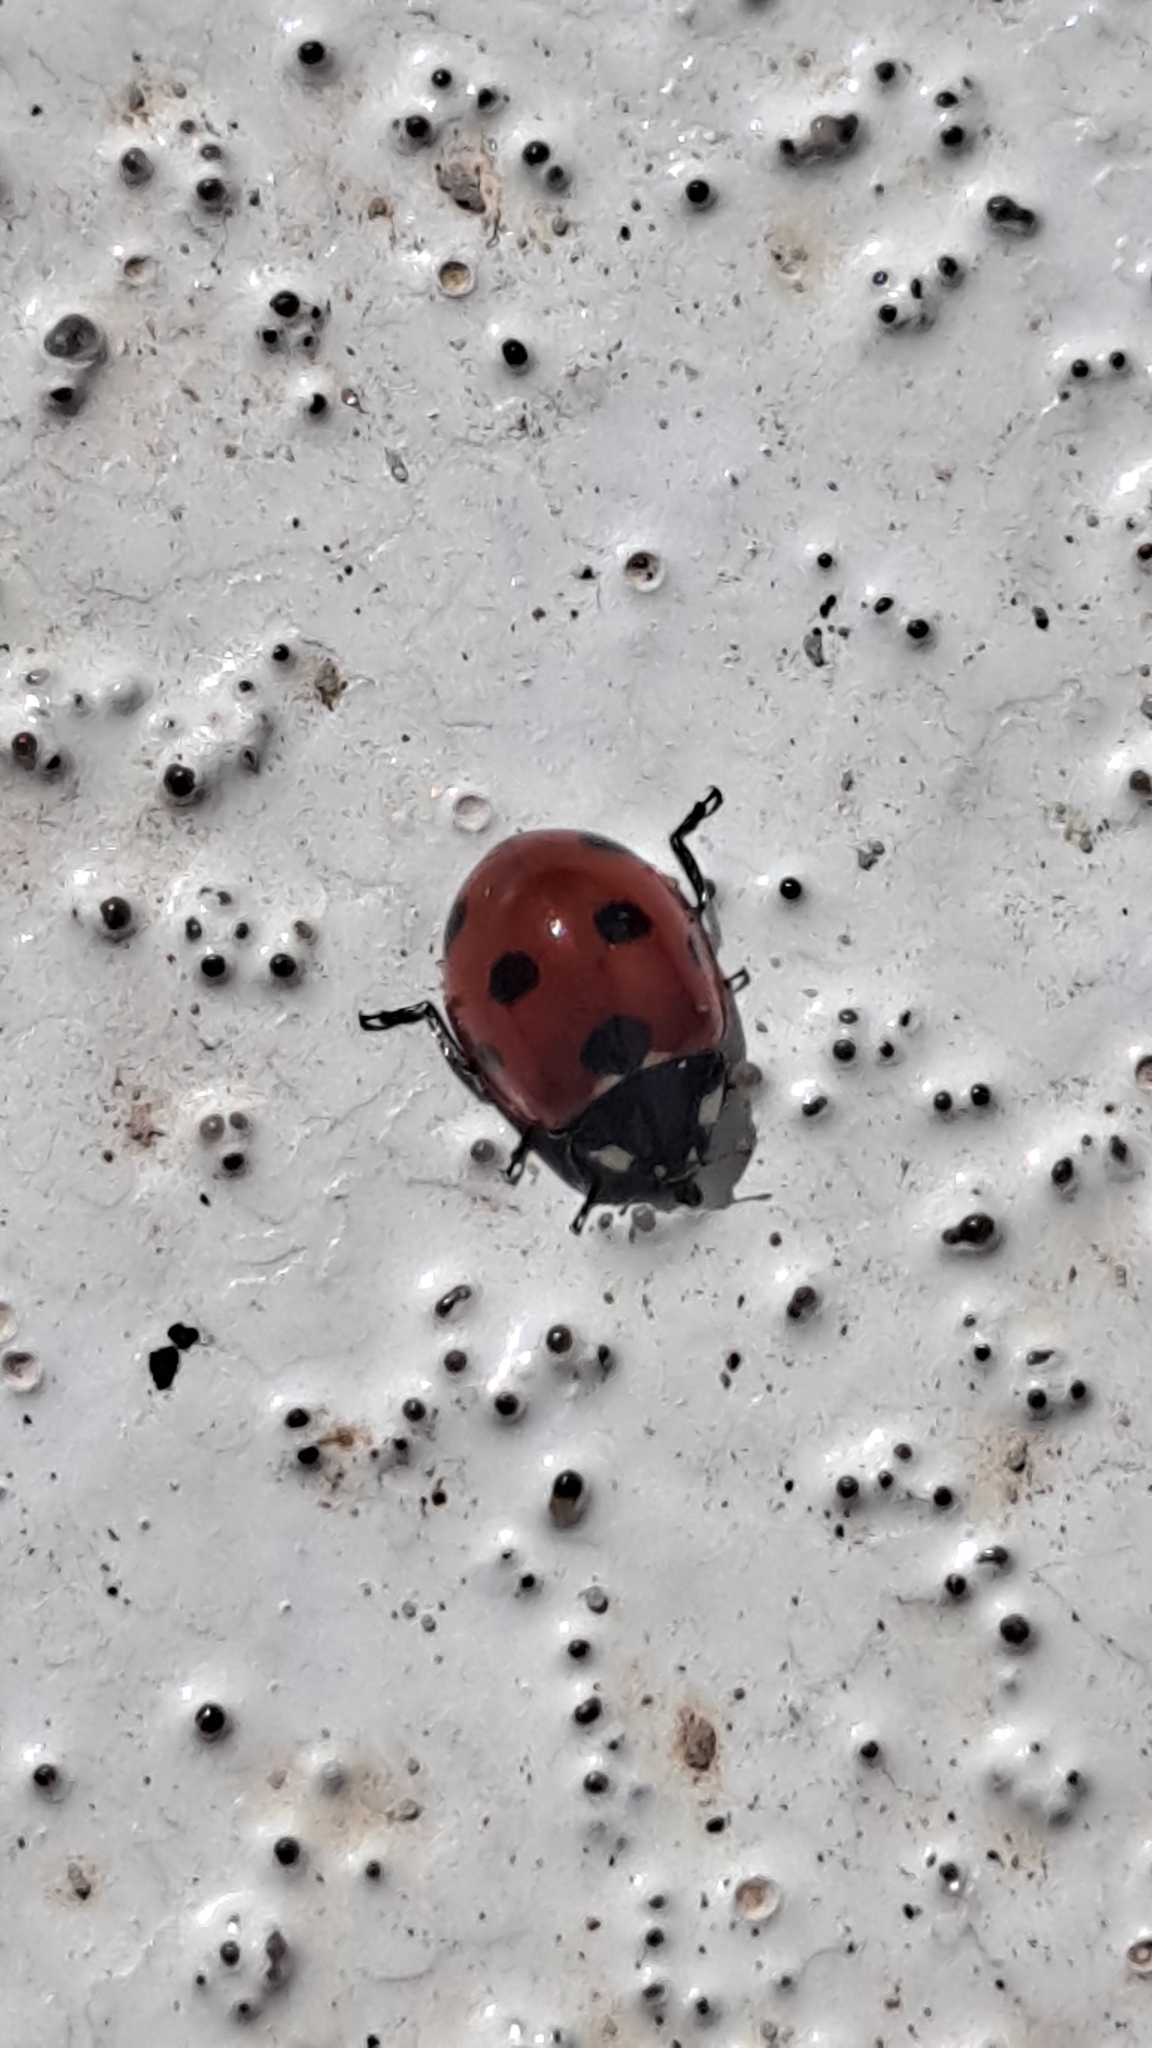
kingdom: Animalia
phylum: Arthropoda
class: Insecta
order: Coleoptera
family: Coccinellidae
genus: Coccinella
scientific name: Coccinella algerica
